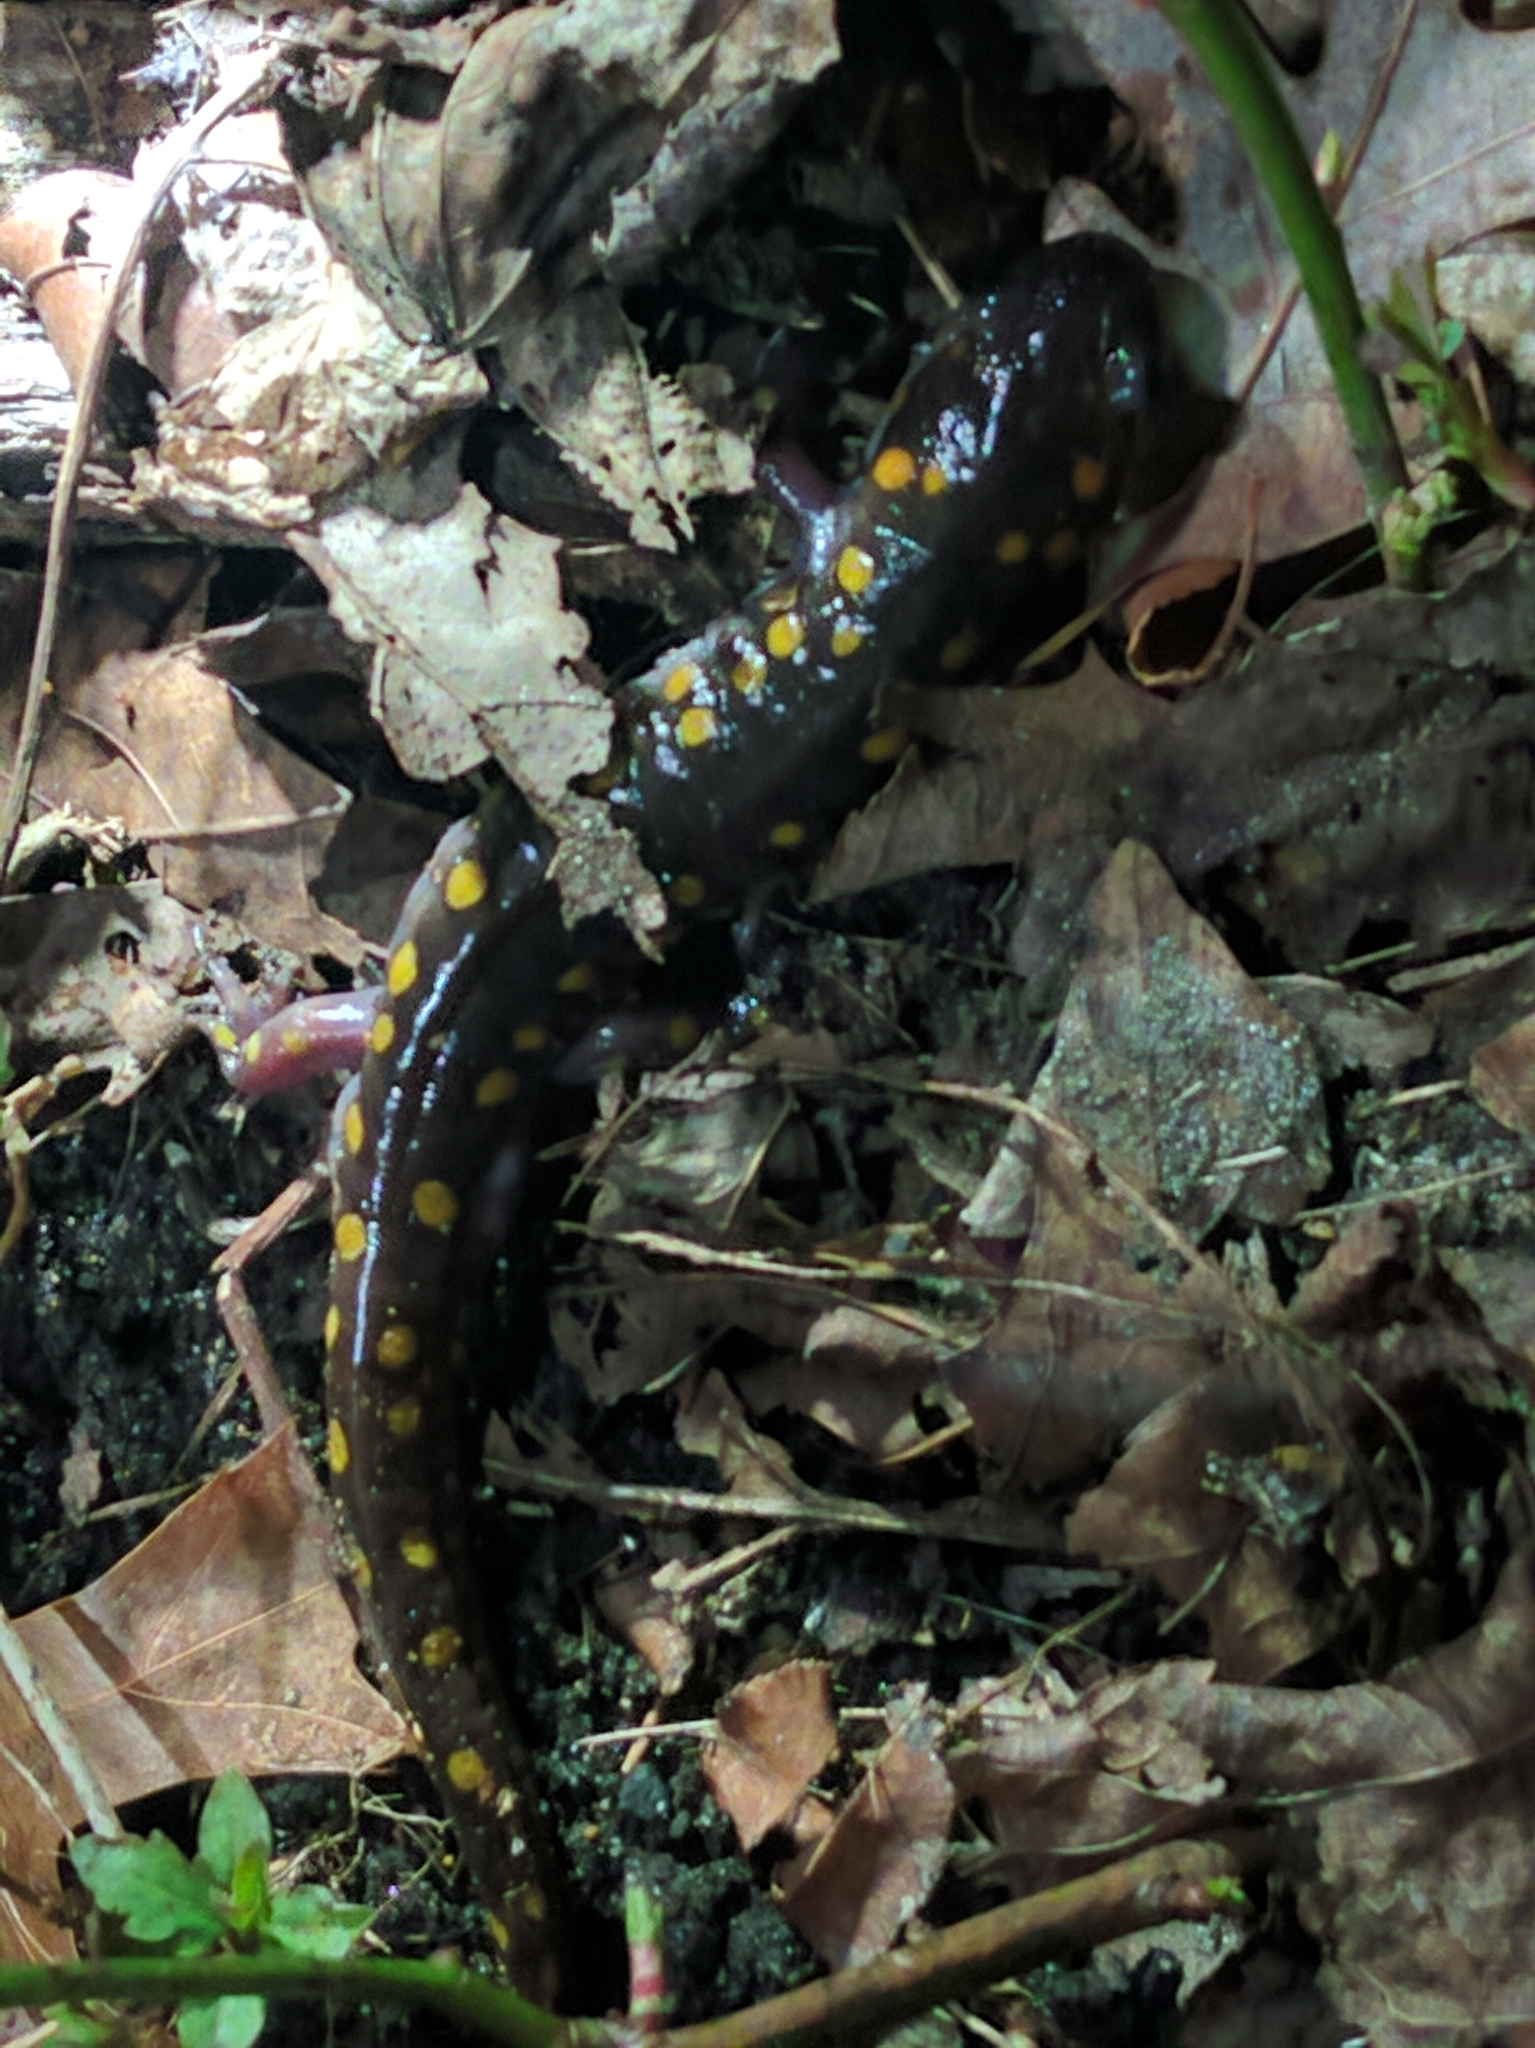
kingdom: Animalia
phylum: Chordata
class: Amphibia
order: Caudata
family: Ambystomatidae
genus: Ambystoma
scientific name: Ambystoma maculatum
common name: Spotted salamander
